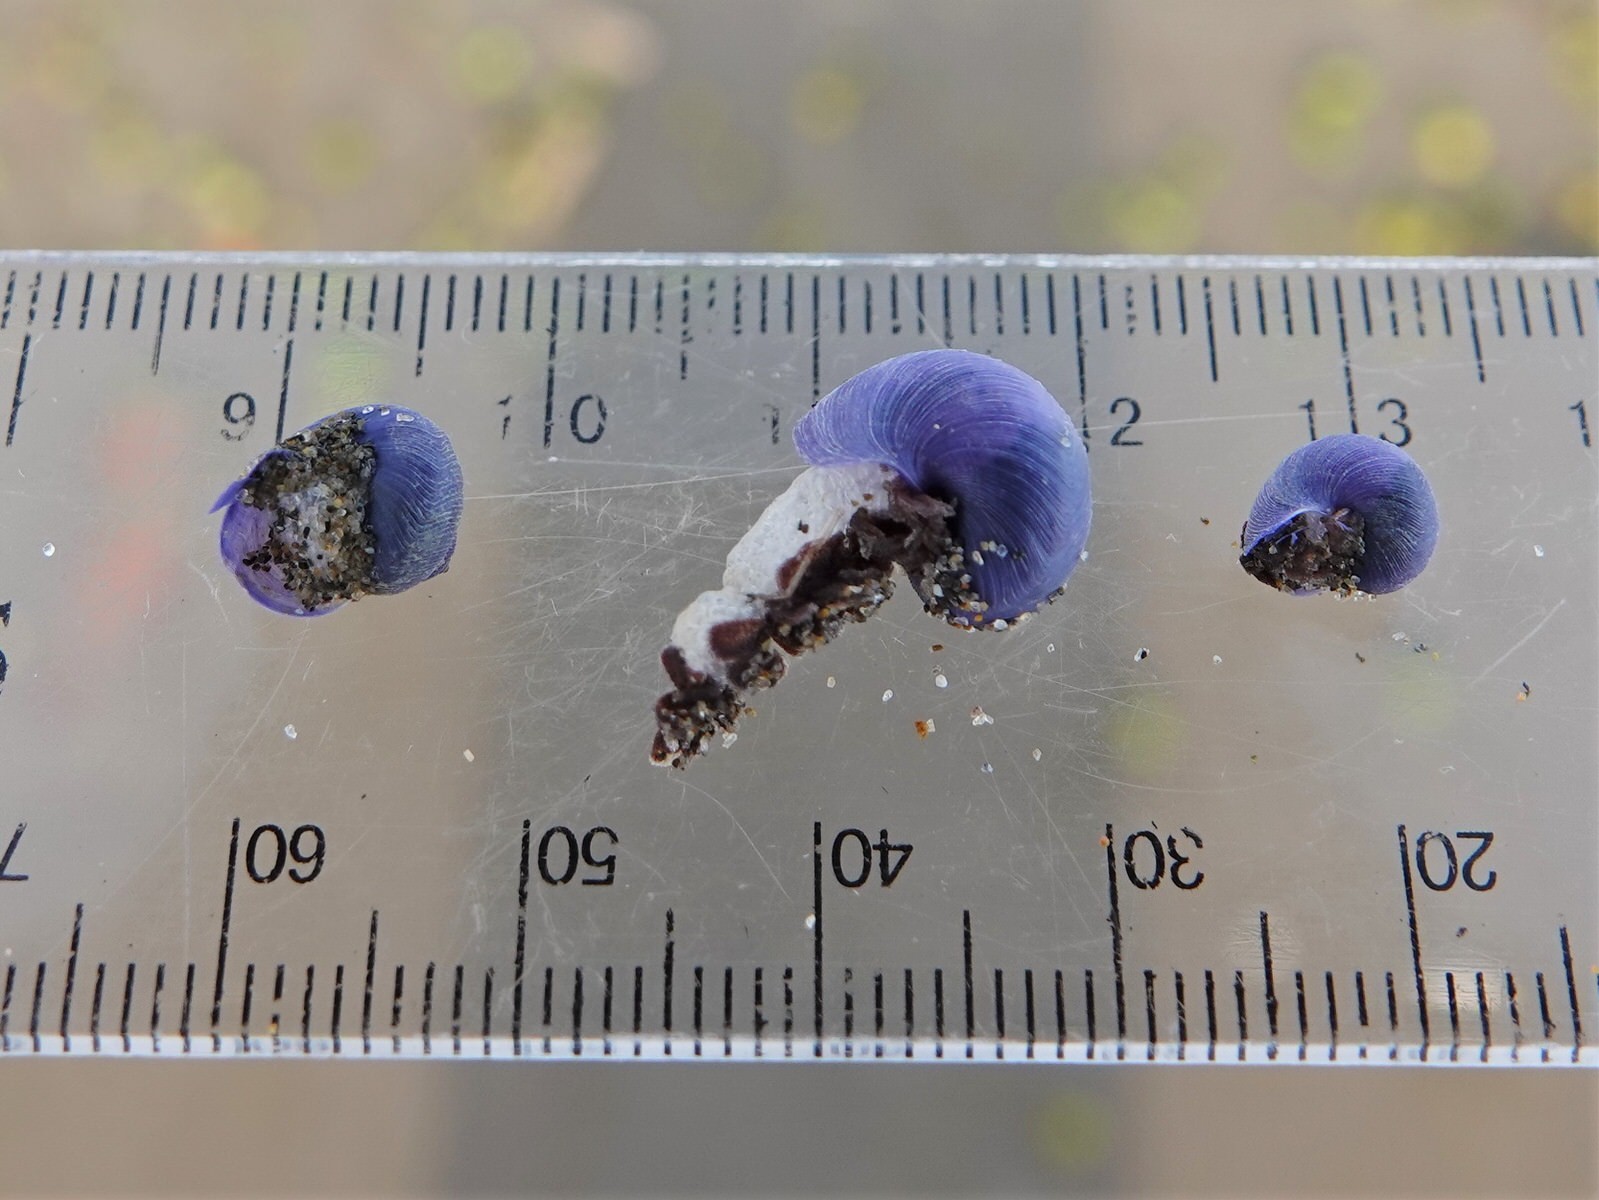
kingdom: Animalia
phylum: Mollusca
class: Gastropoda
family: Epitoniidae
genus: Janthina
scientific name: Janthina exigua
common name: Dwarf janthina
